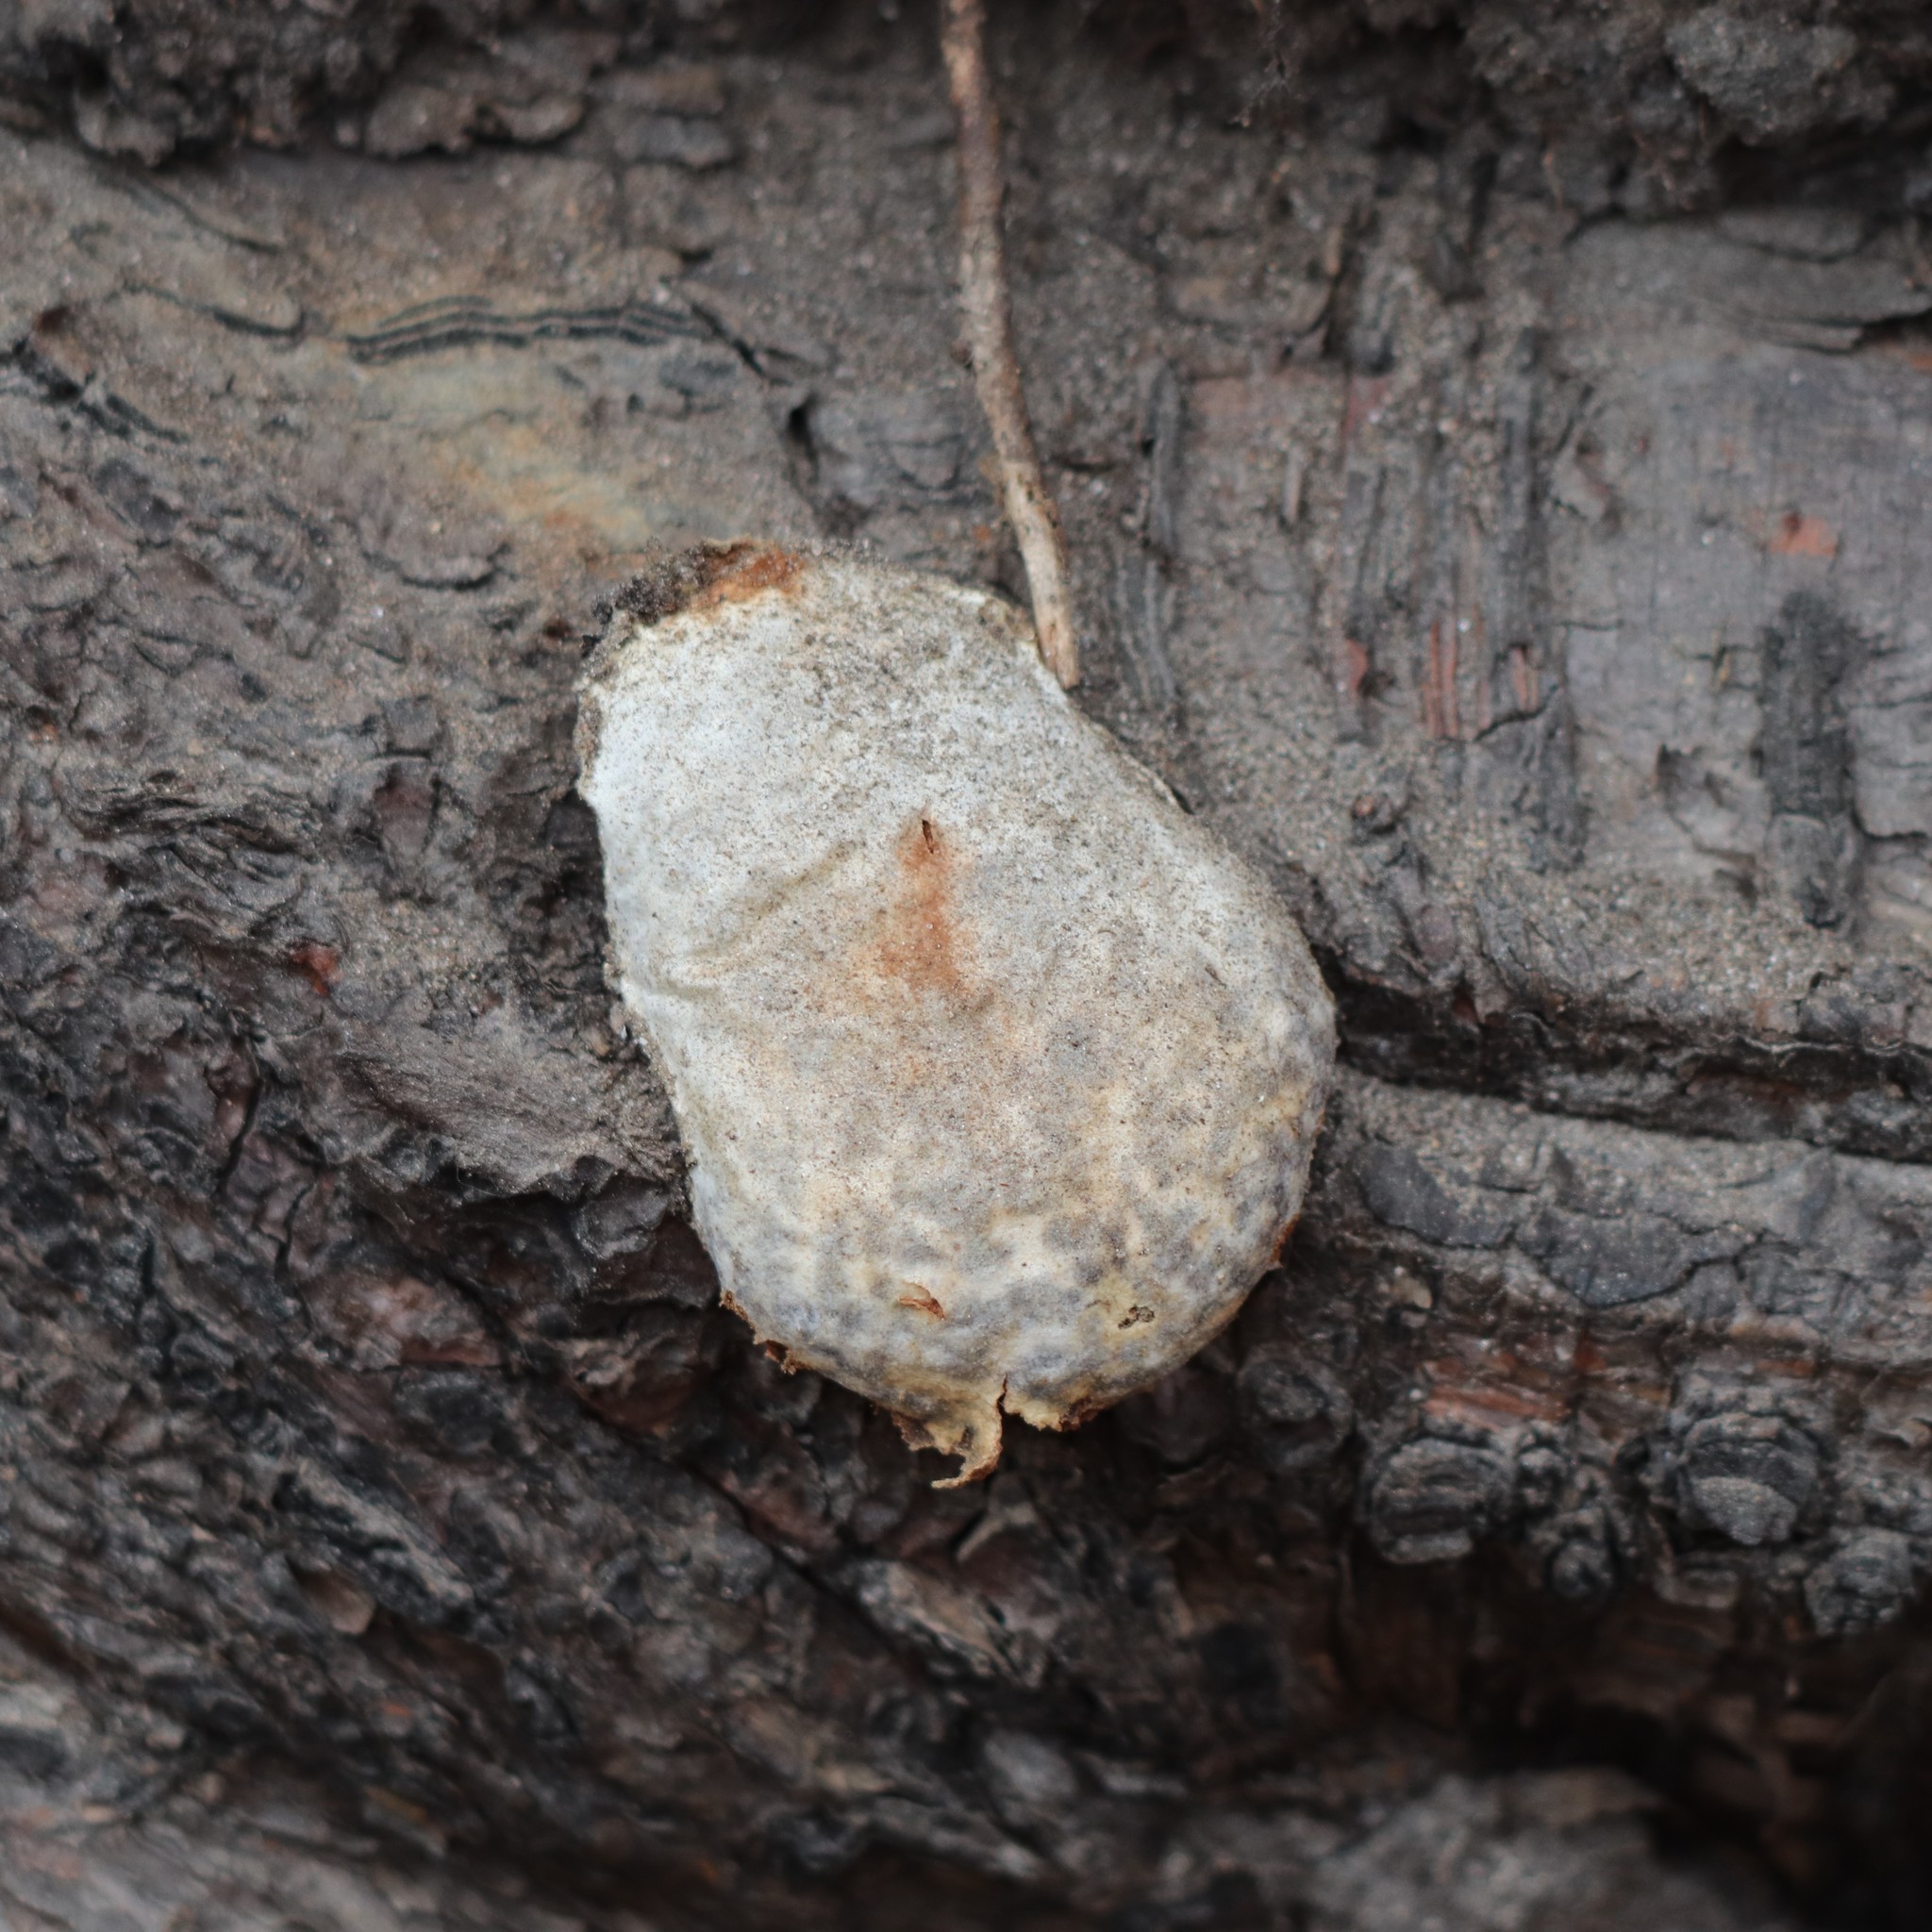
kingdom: Protozoa
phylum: Mycetozoa
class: Myxomycetes
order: Cribrariales
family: Tubiferaceae
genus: Reticularia
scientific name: Reticularia lycoperdon
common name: False puffball
